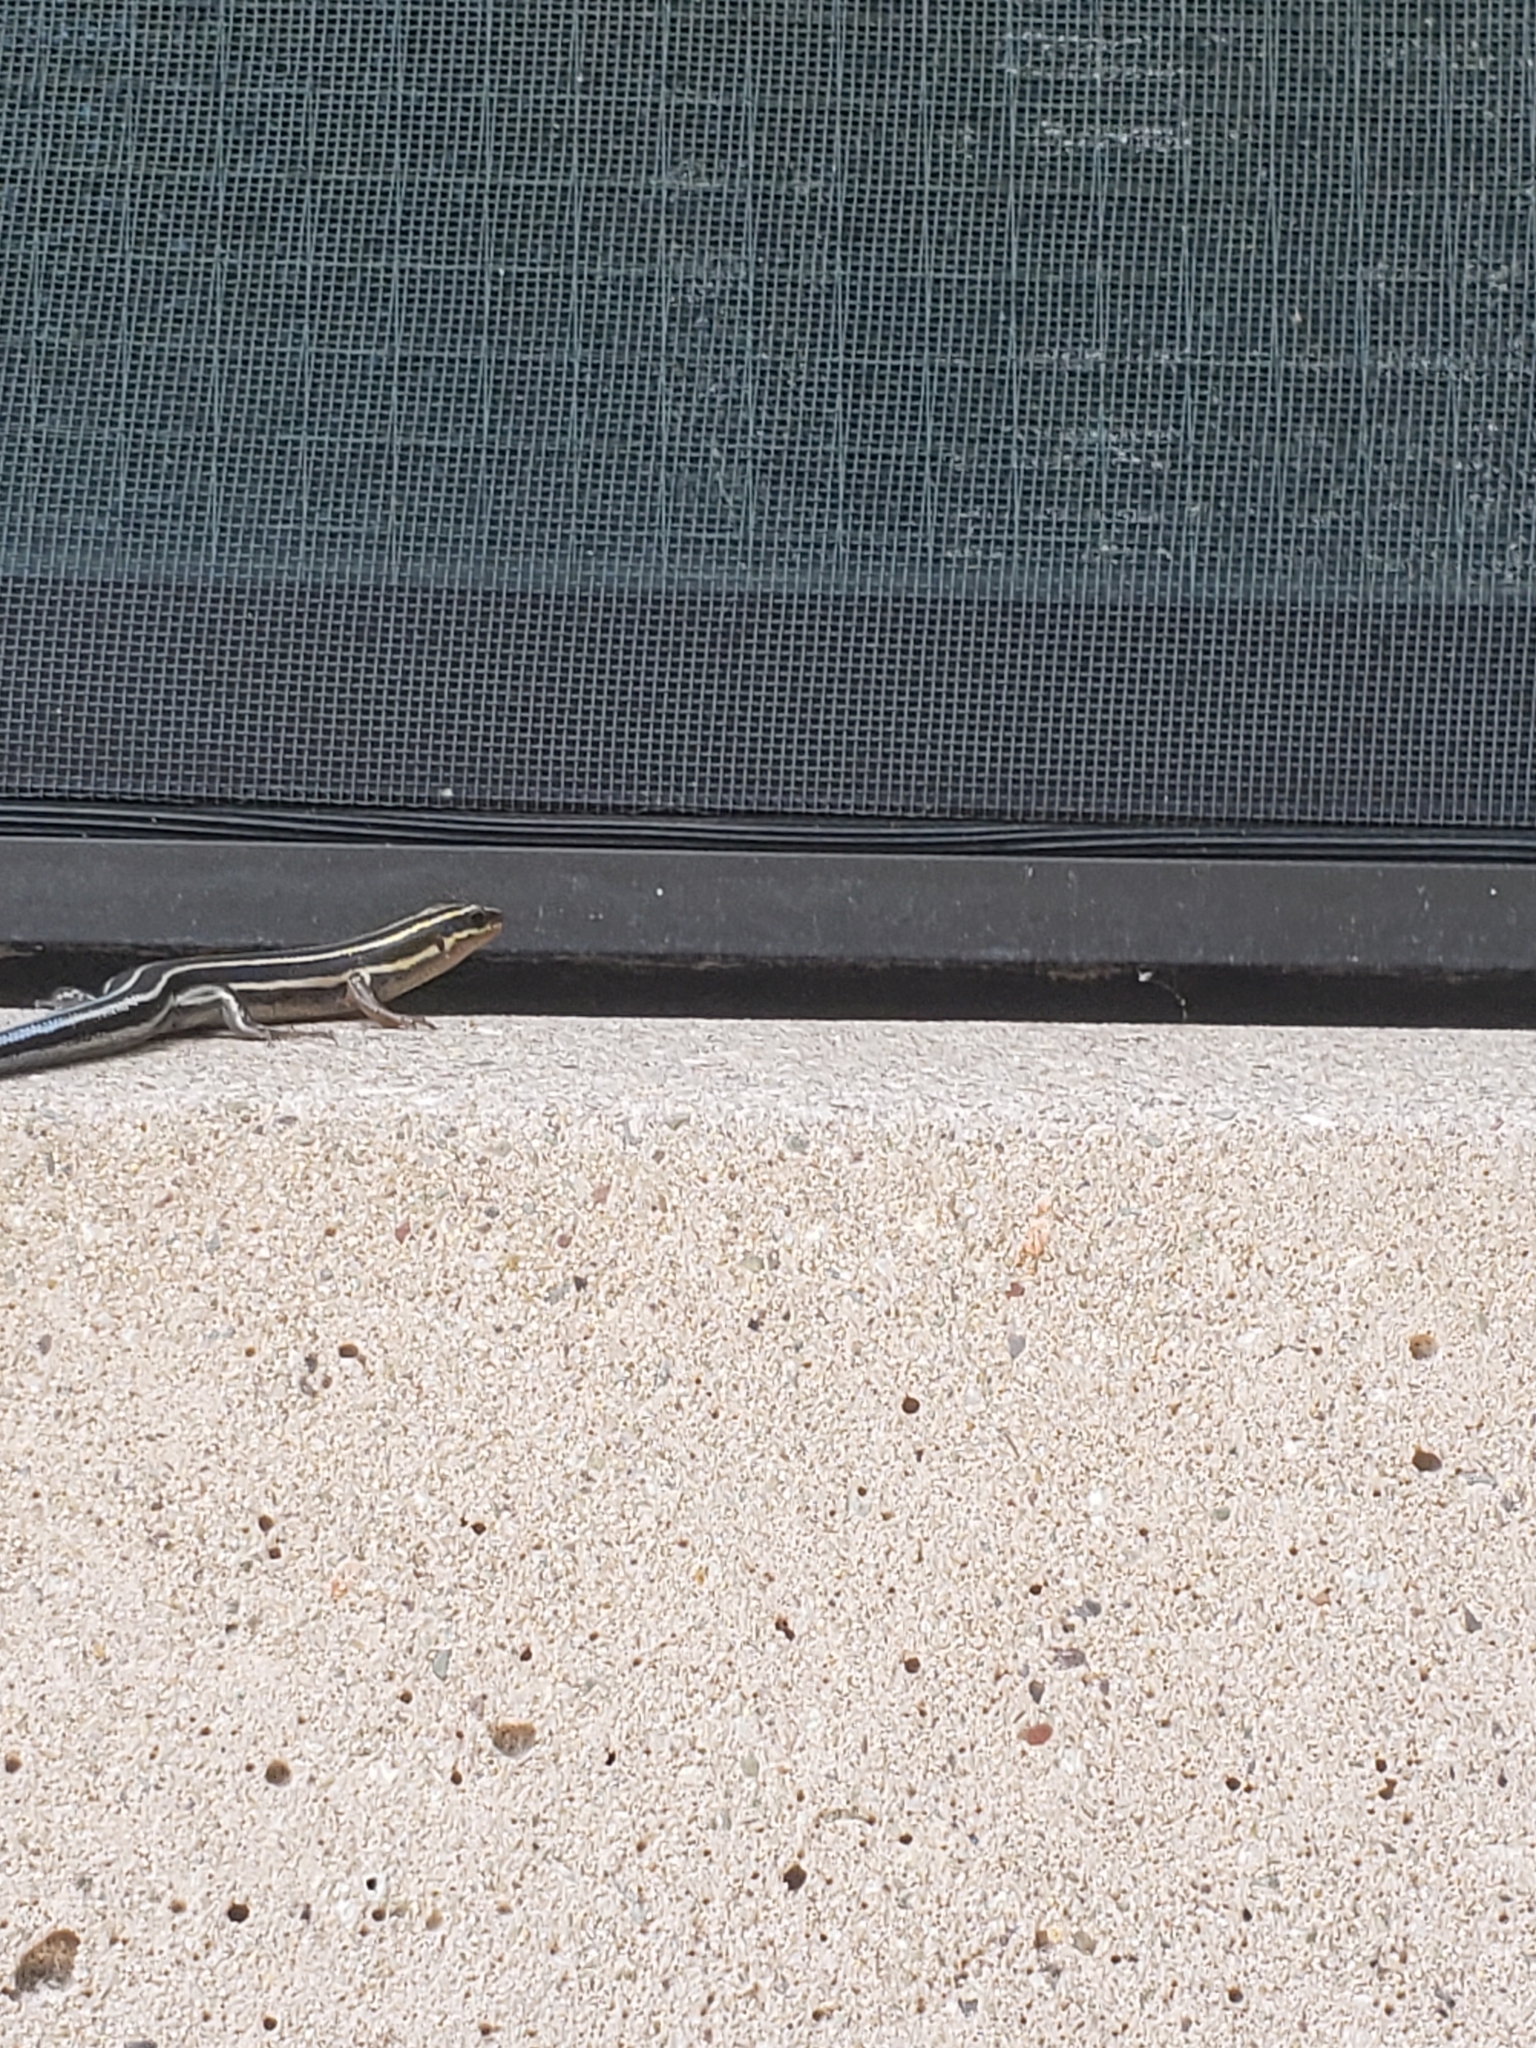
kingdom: Animalia
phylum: Chordata
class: Squamata
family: Scincidae
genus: Plestiodon
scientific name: Plestiodon fasciatus
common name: Five-lined skink
